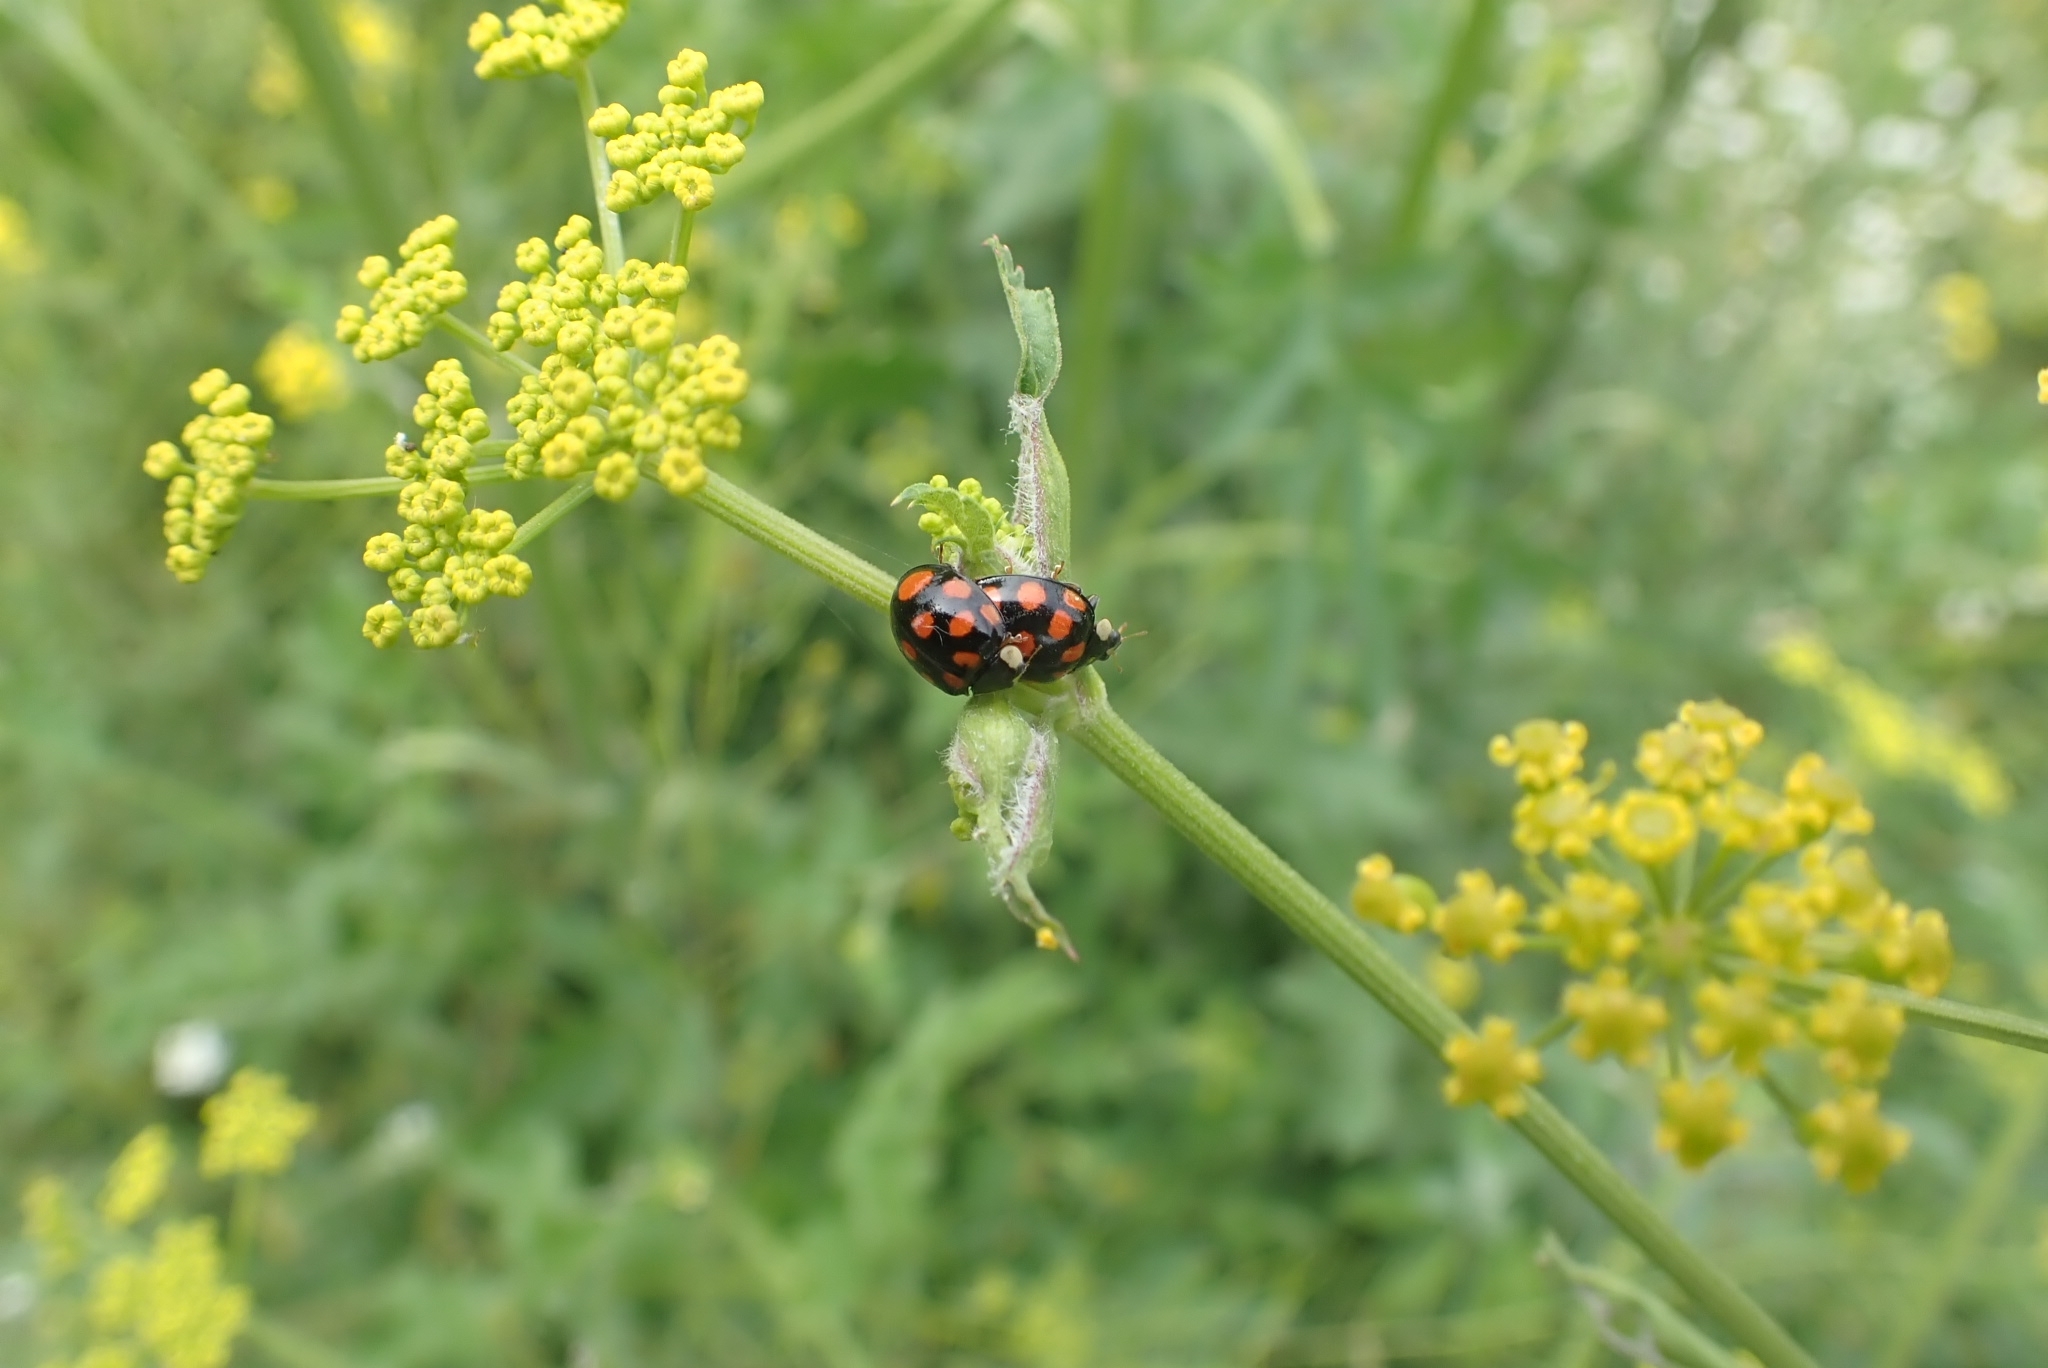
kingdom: Animalia
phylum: Arthropoda
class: Insecta
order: Coleoptera
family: Coccinellidae
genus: Harmonia
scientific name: Harmonia axyridis
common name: Harlequin ladybird
